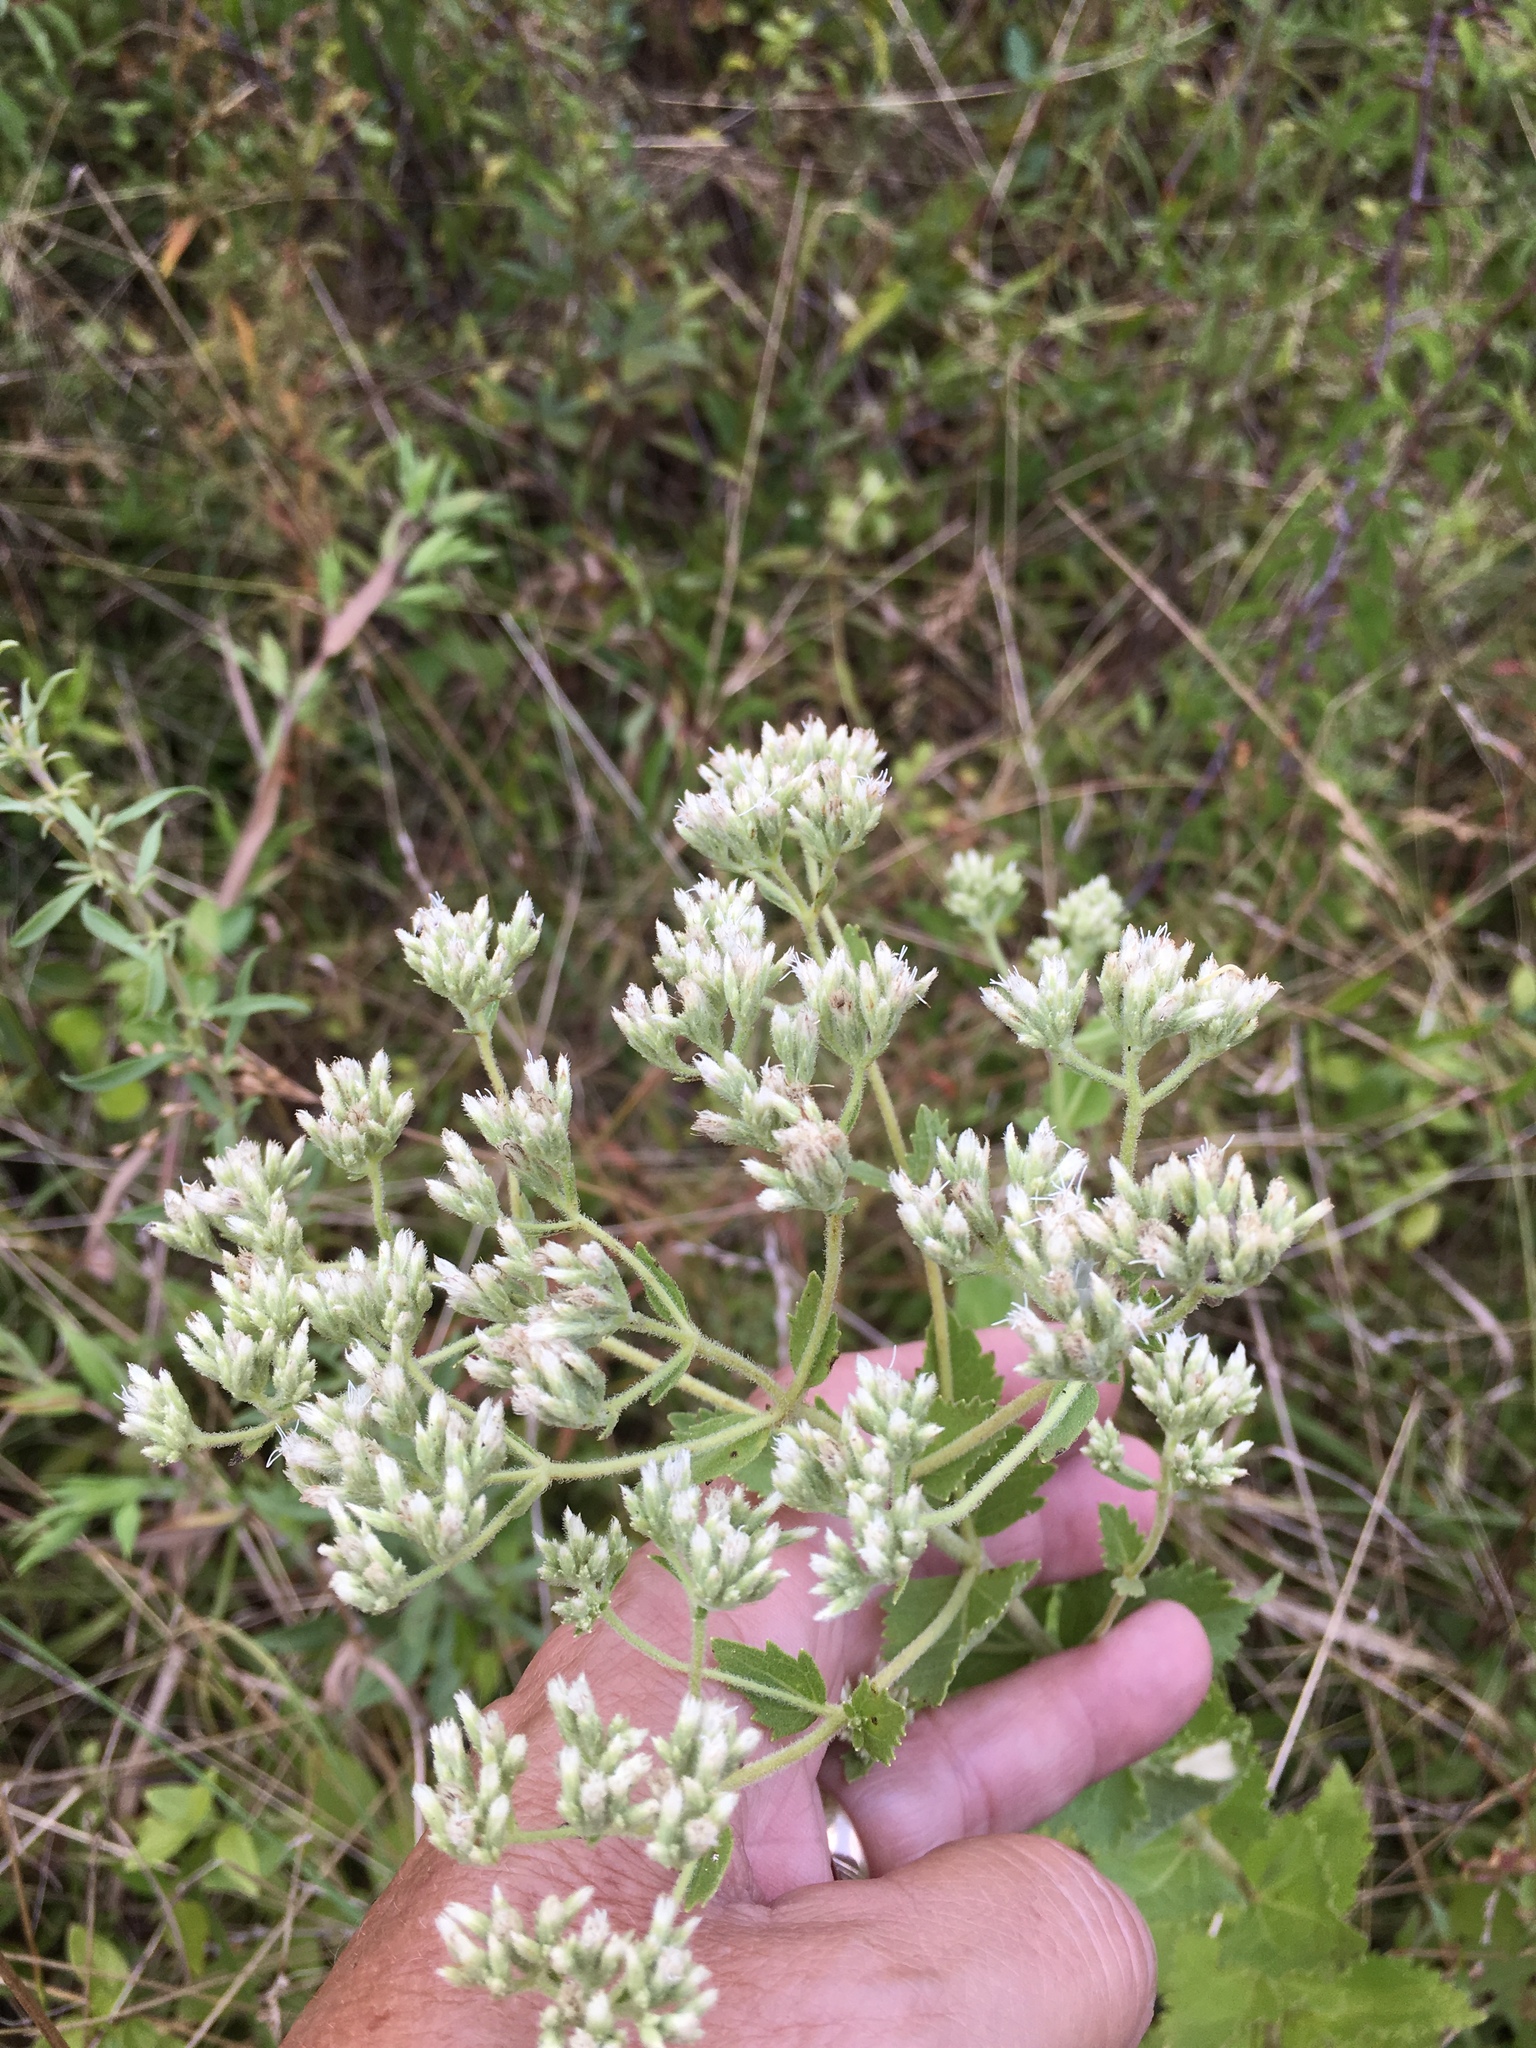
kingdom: Plantae
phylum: Tracheophyta
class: Magnoliopsida
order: Asterales
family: Asteraceae
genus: Eupatorium
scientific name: Eupatorium rotundifolium
